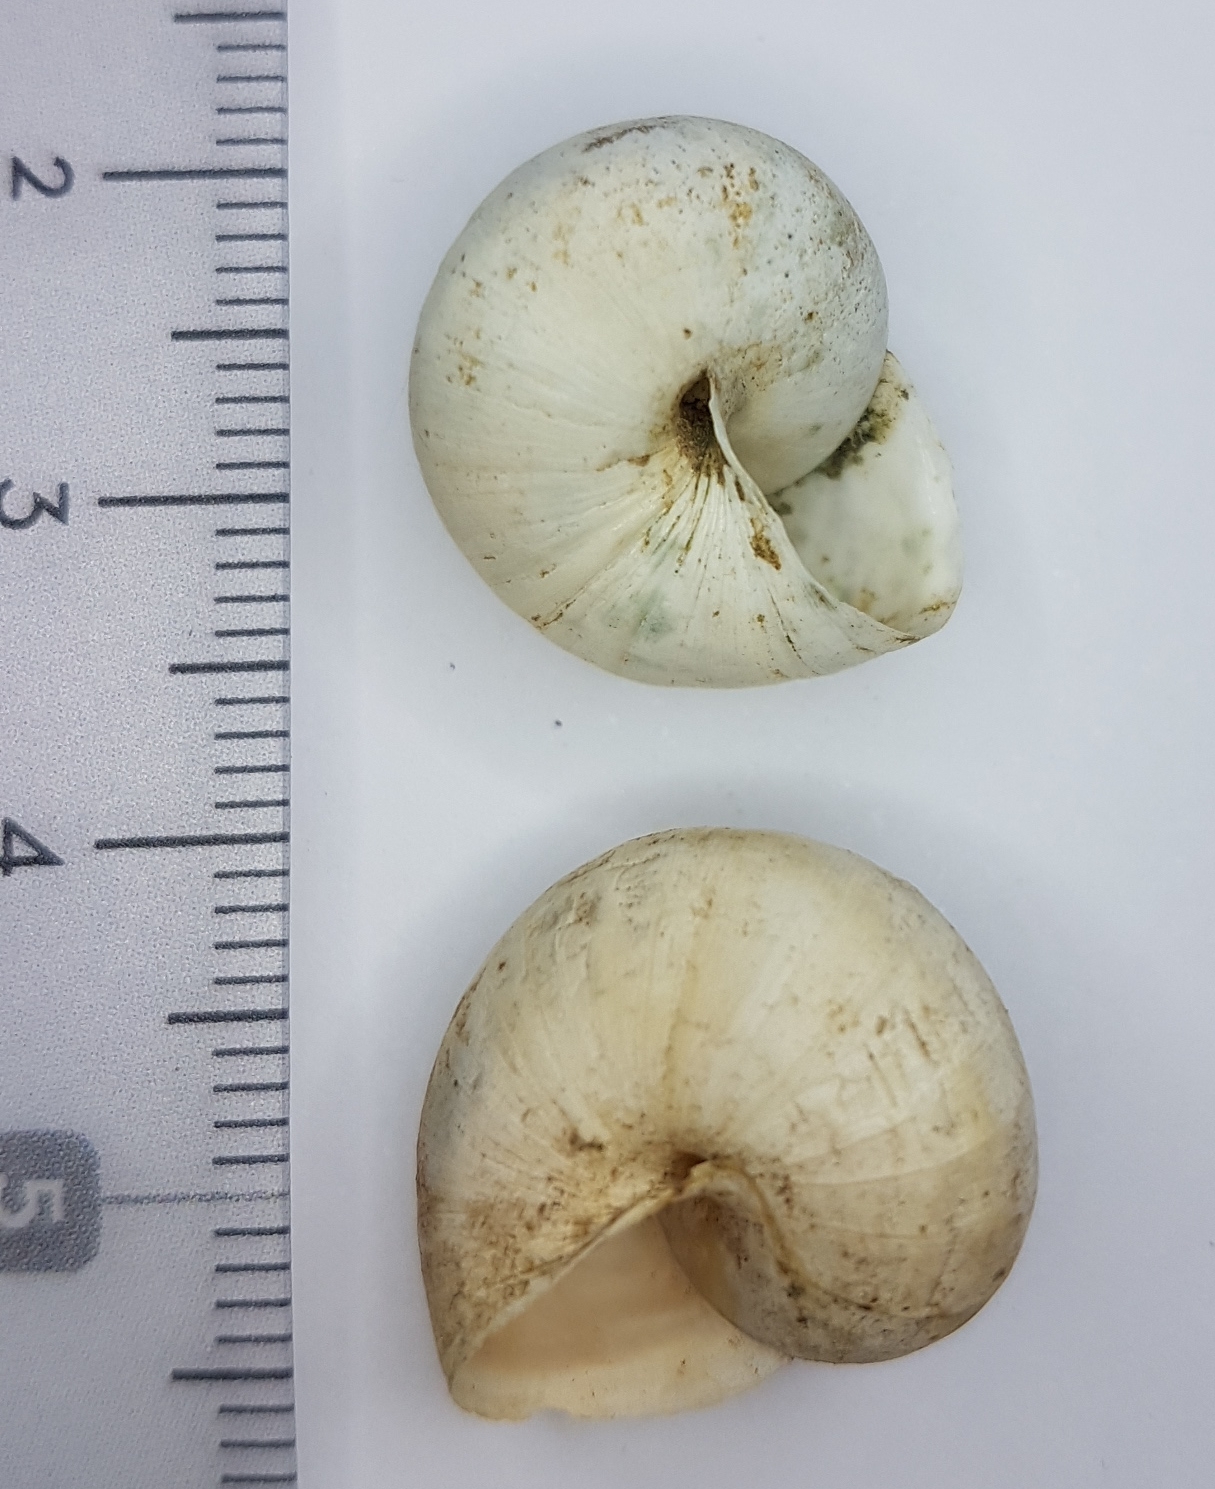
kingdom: Animalia
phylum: Mollusca
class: Gastropoda
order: Stylommatophora
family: Helicidae
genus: Theba
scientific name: Theba pisana
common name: White snail
